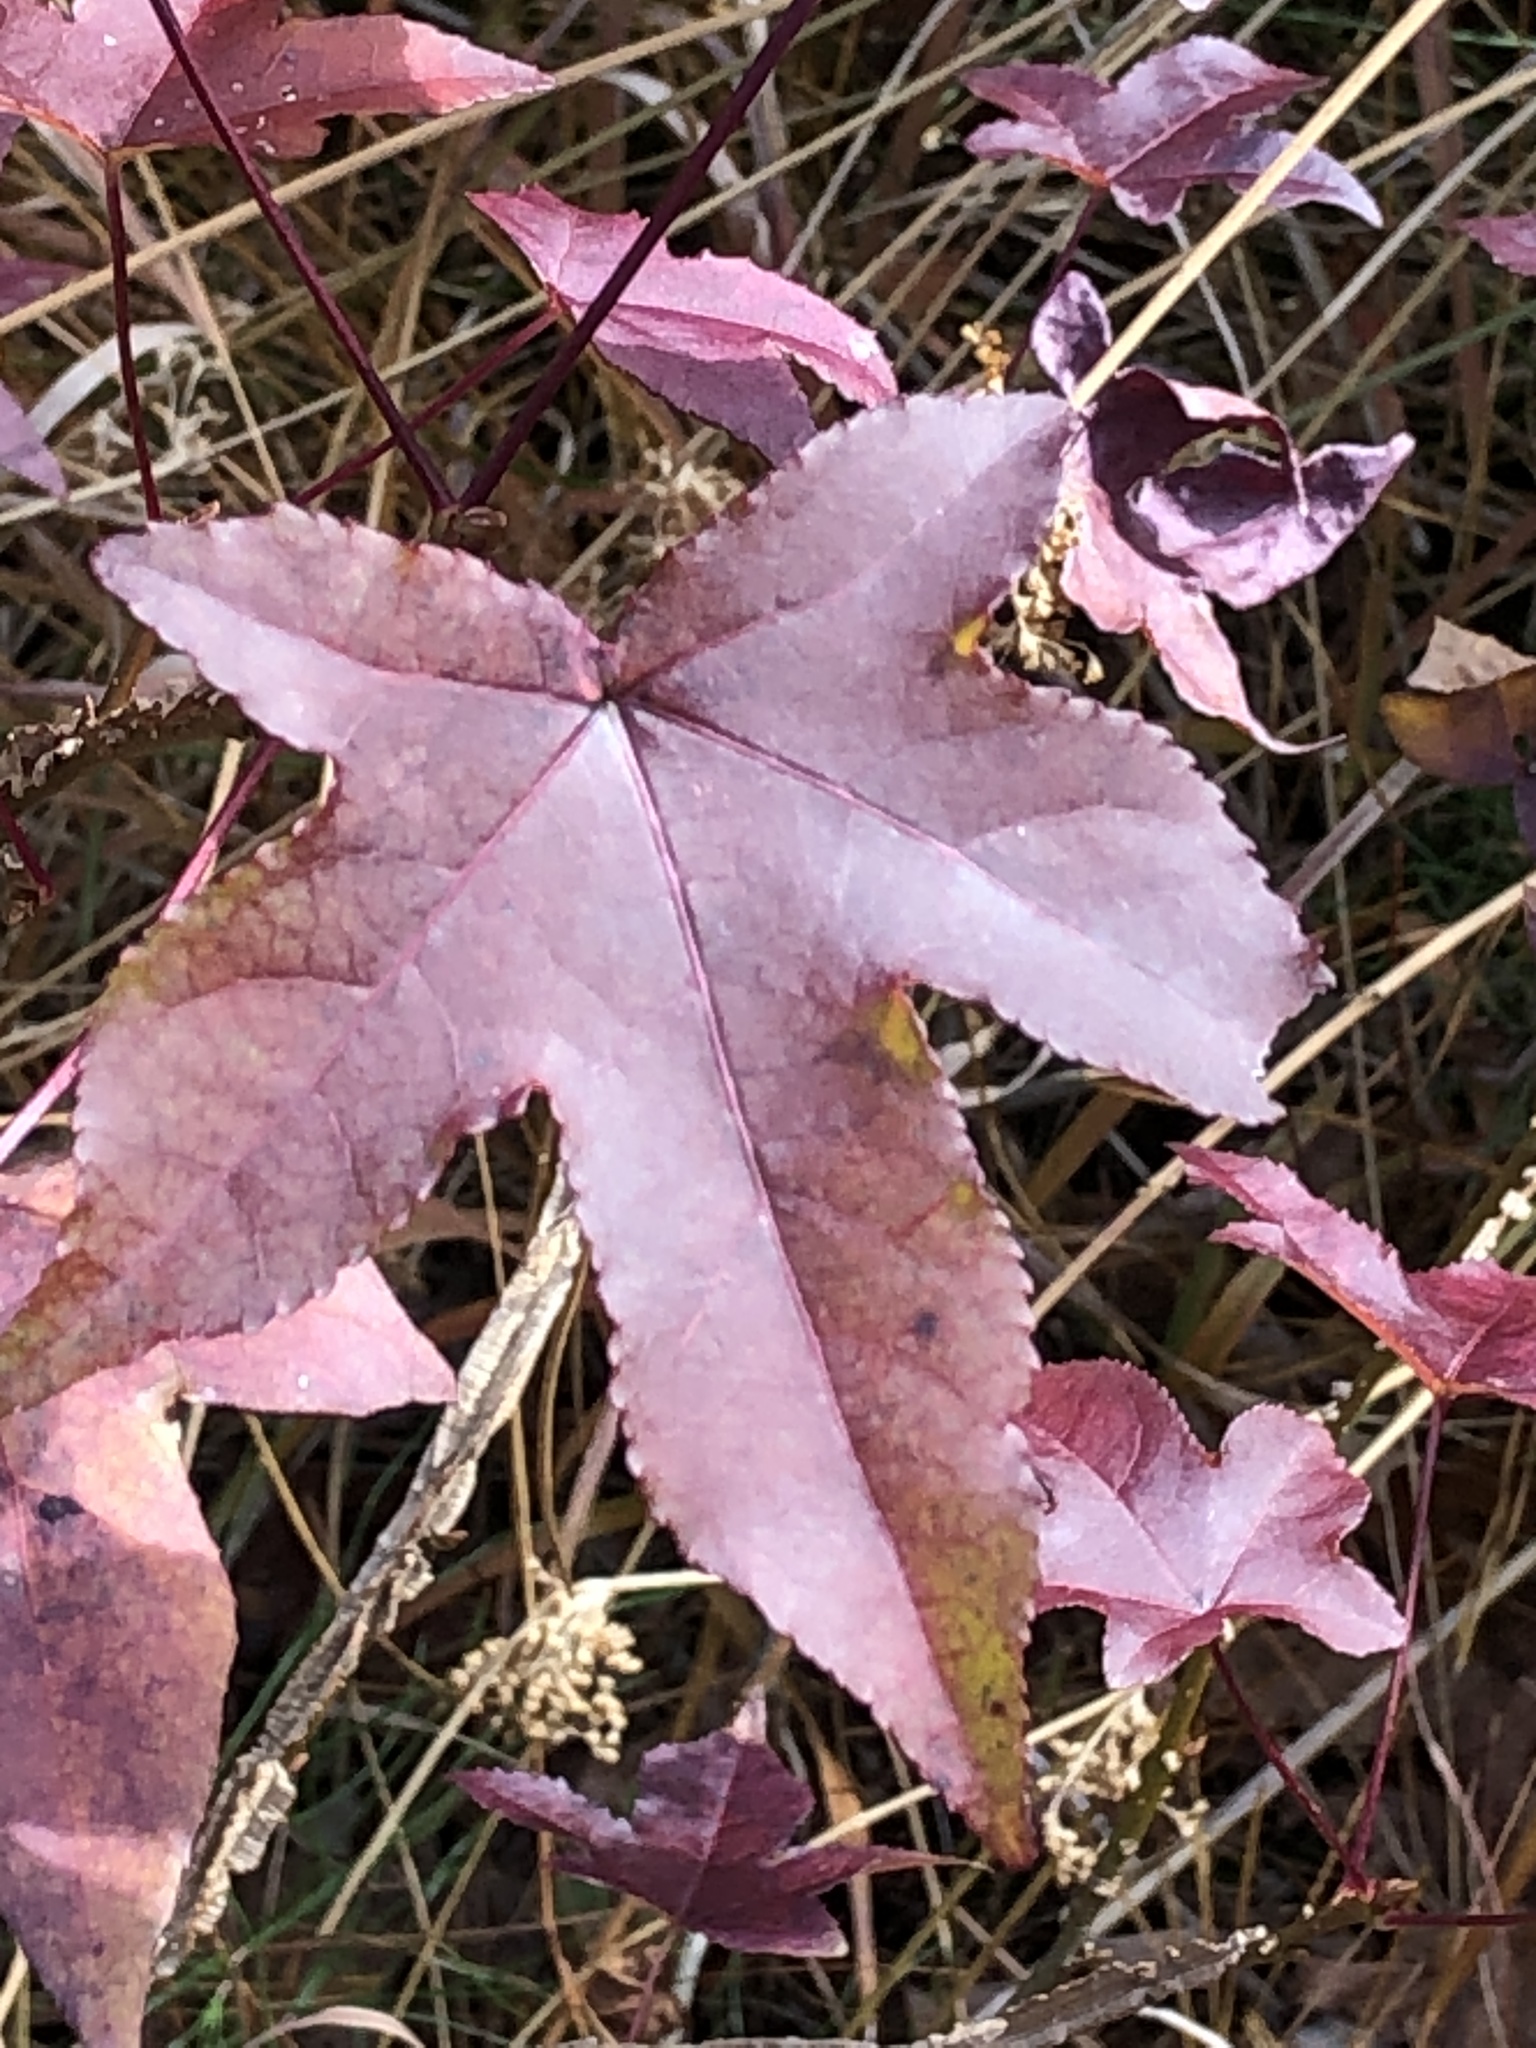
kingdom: Plantae
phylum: Tracheophyta
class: Magnoliopsida
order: Saxifragales
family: Altingiaceae
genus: Liquidambar
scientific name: Liquidambar styraciflua
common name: Sweet gum
